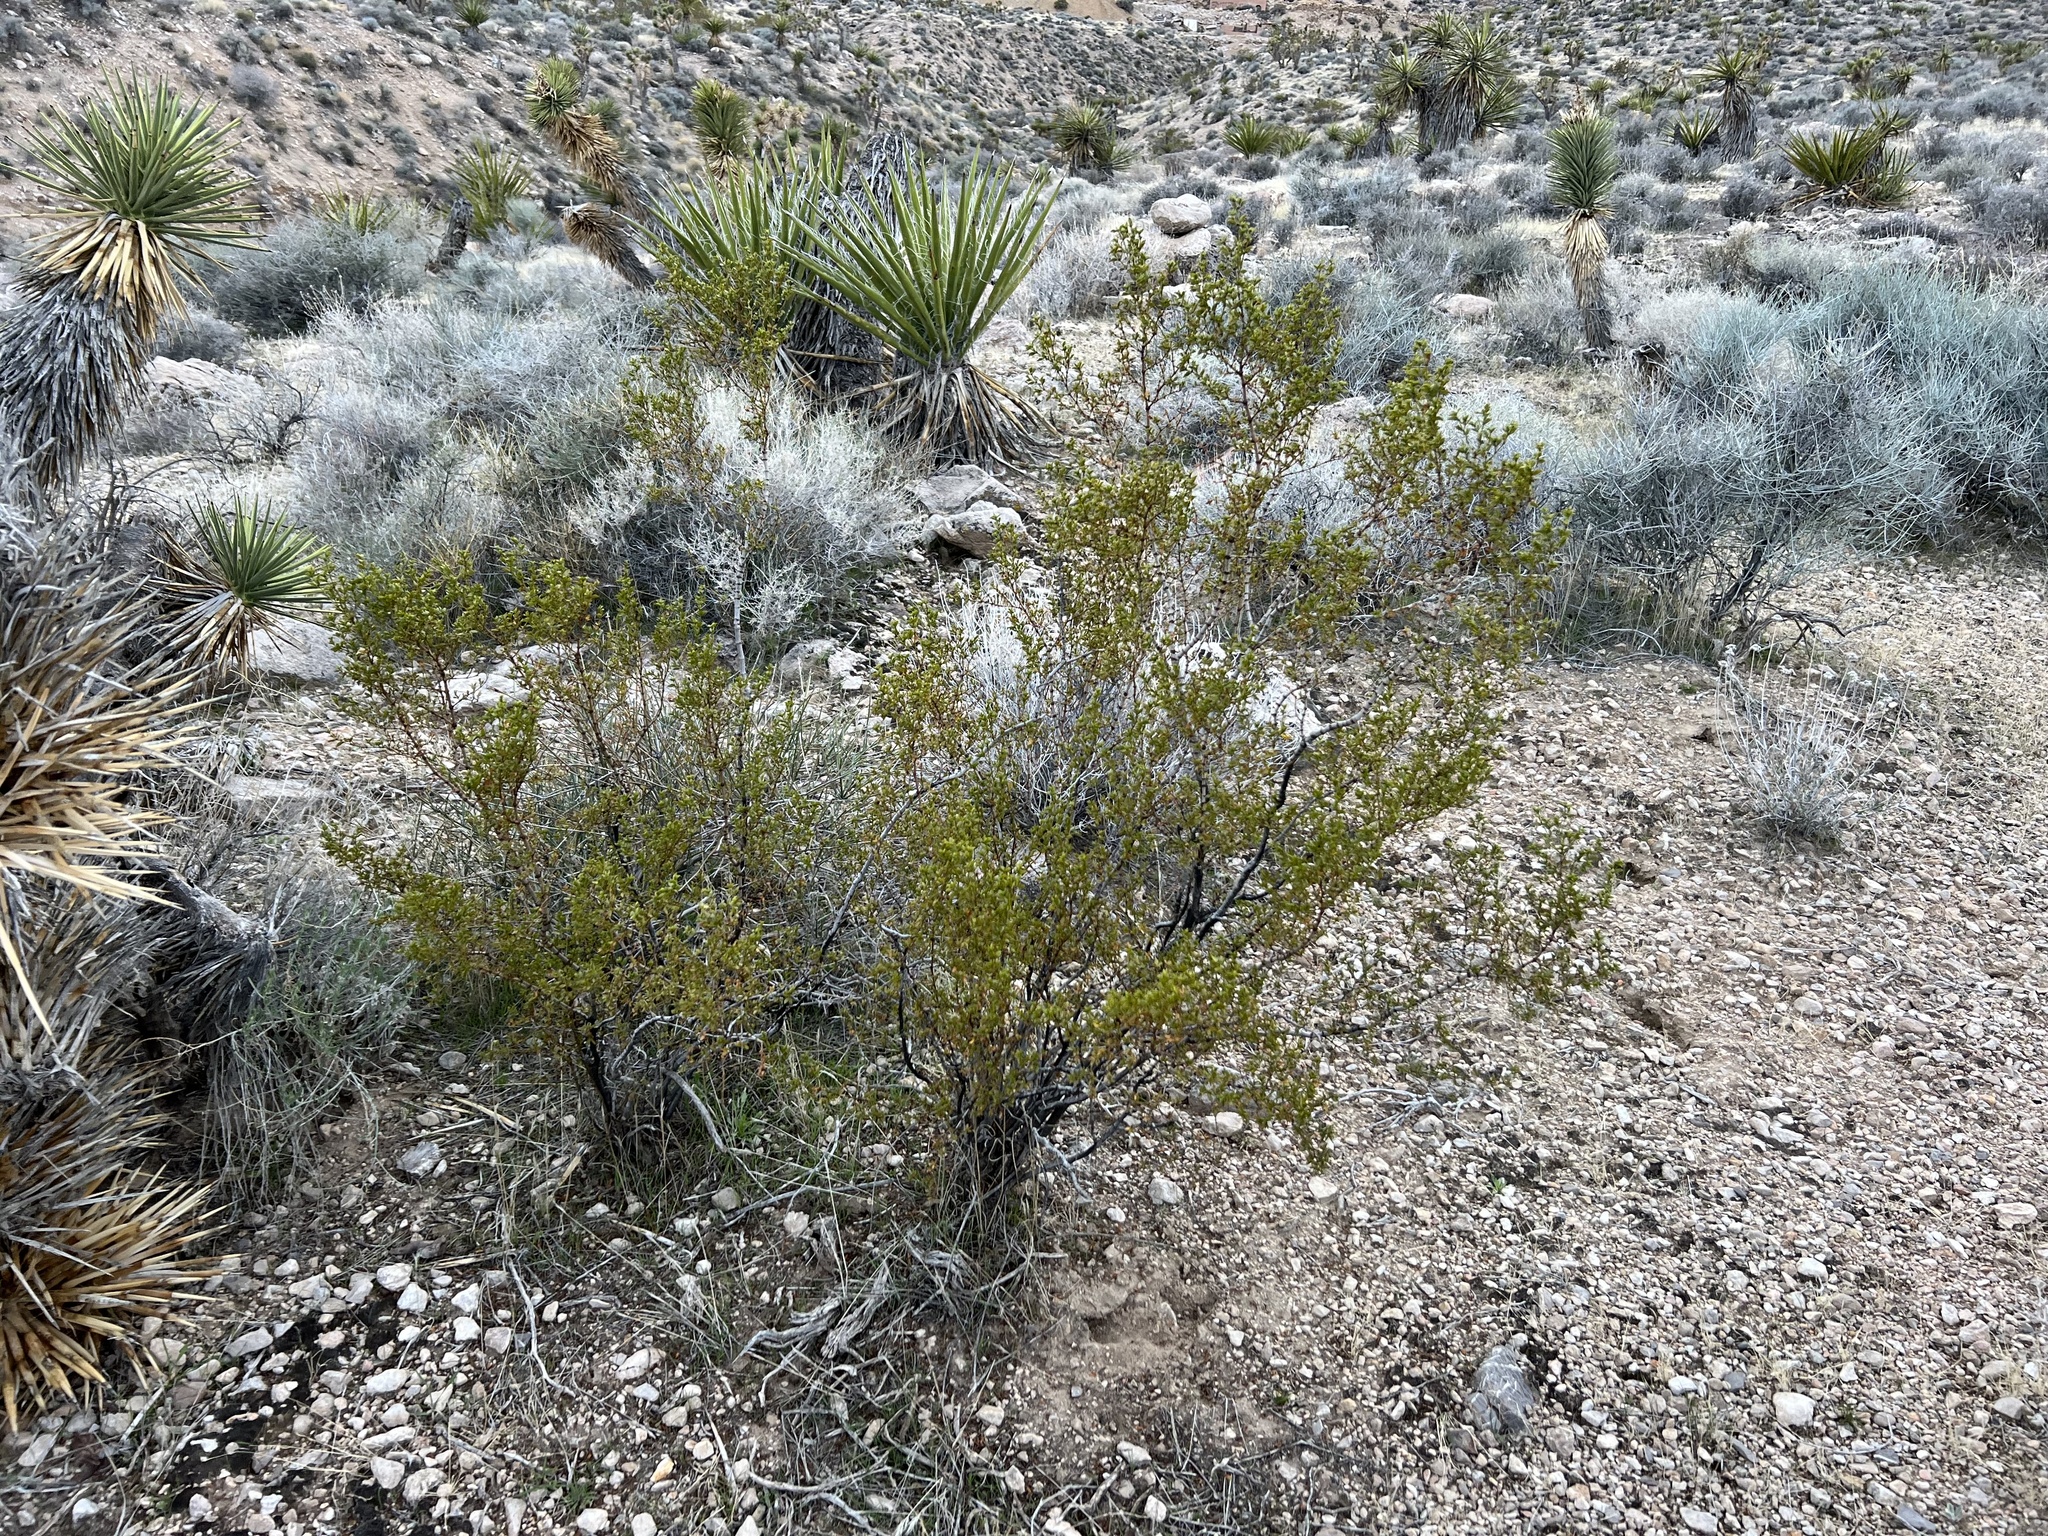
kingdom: Plantae
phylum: Tracheophyta
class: Magnoliopsida
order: Zygophyllales
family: Zygophyllaceae
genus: Larrea
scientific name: Larrea tridentata
